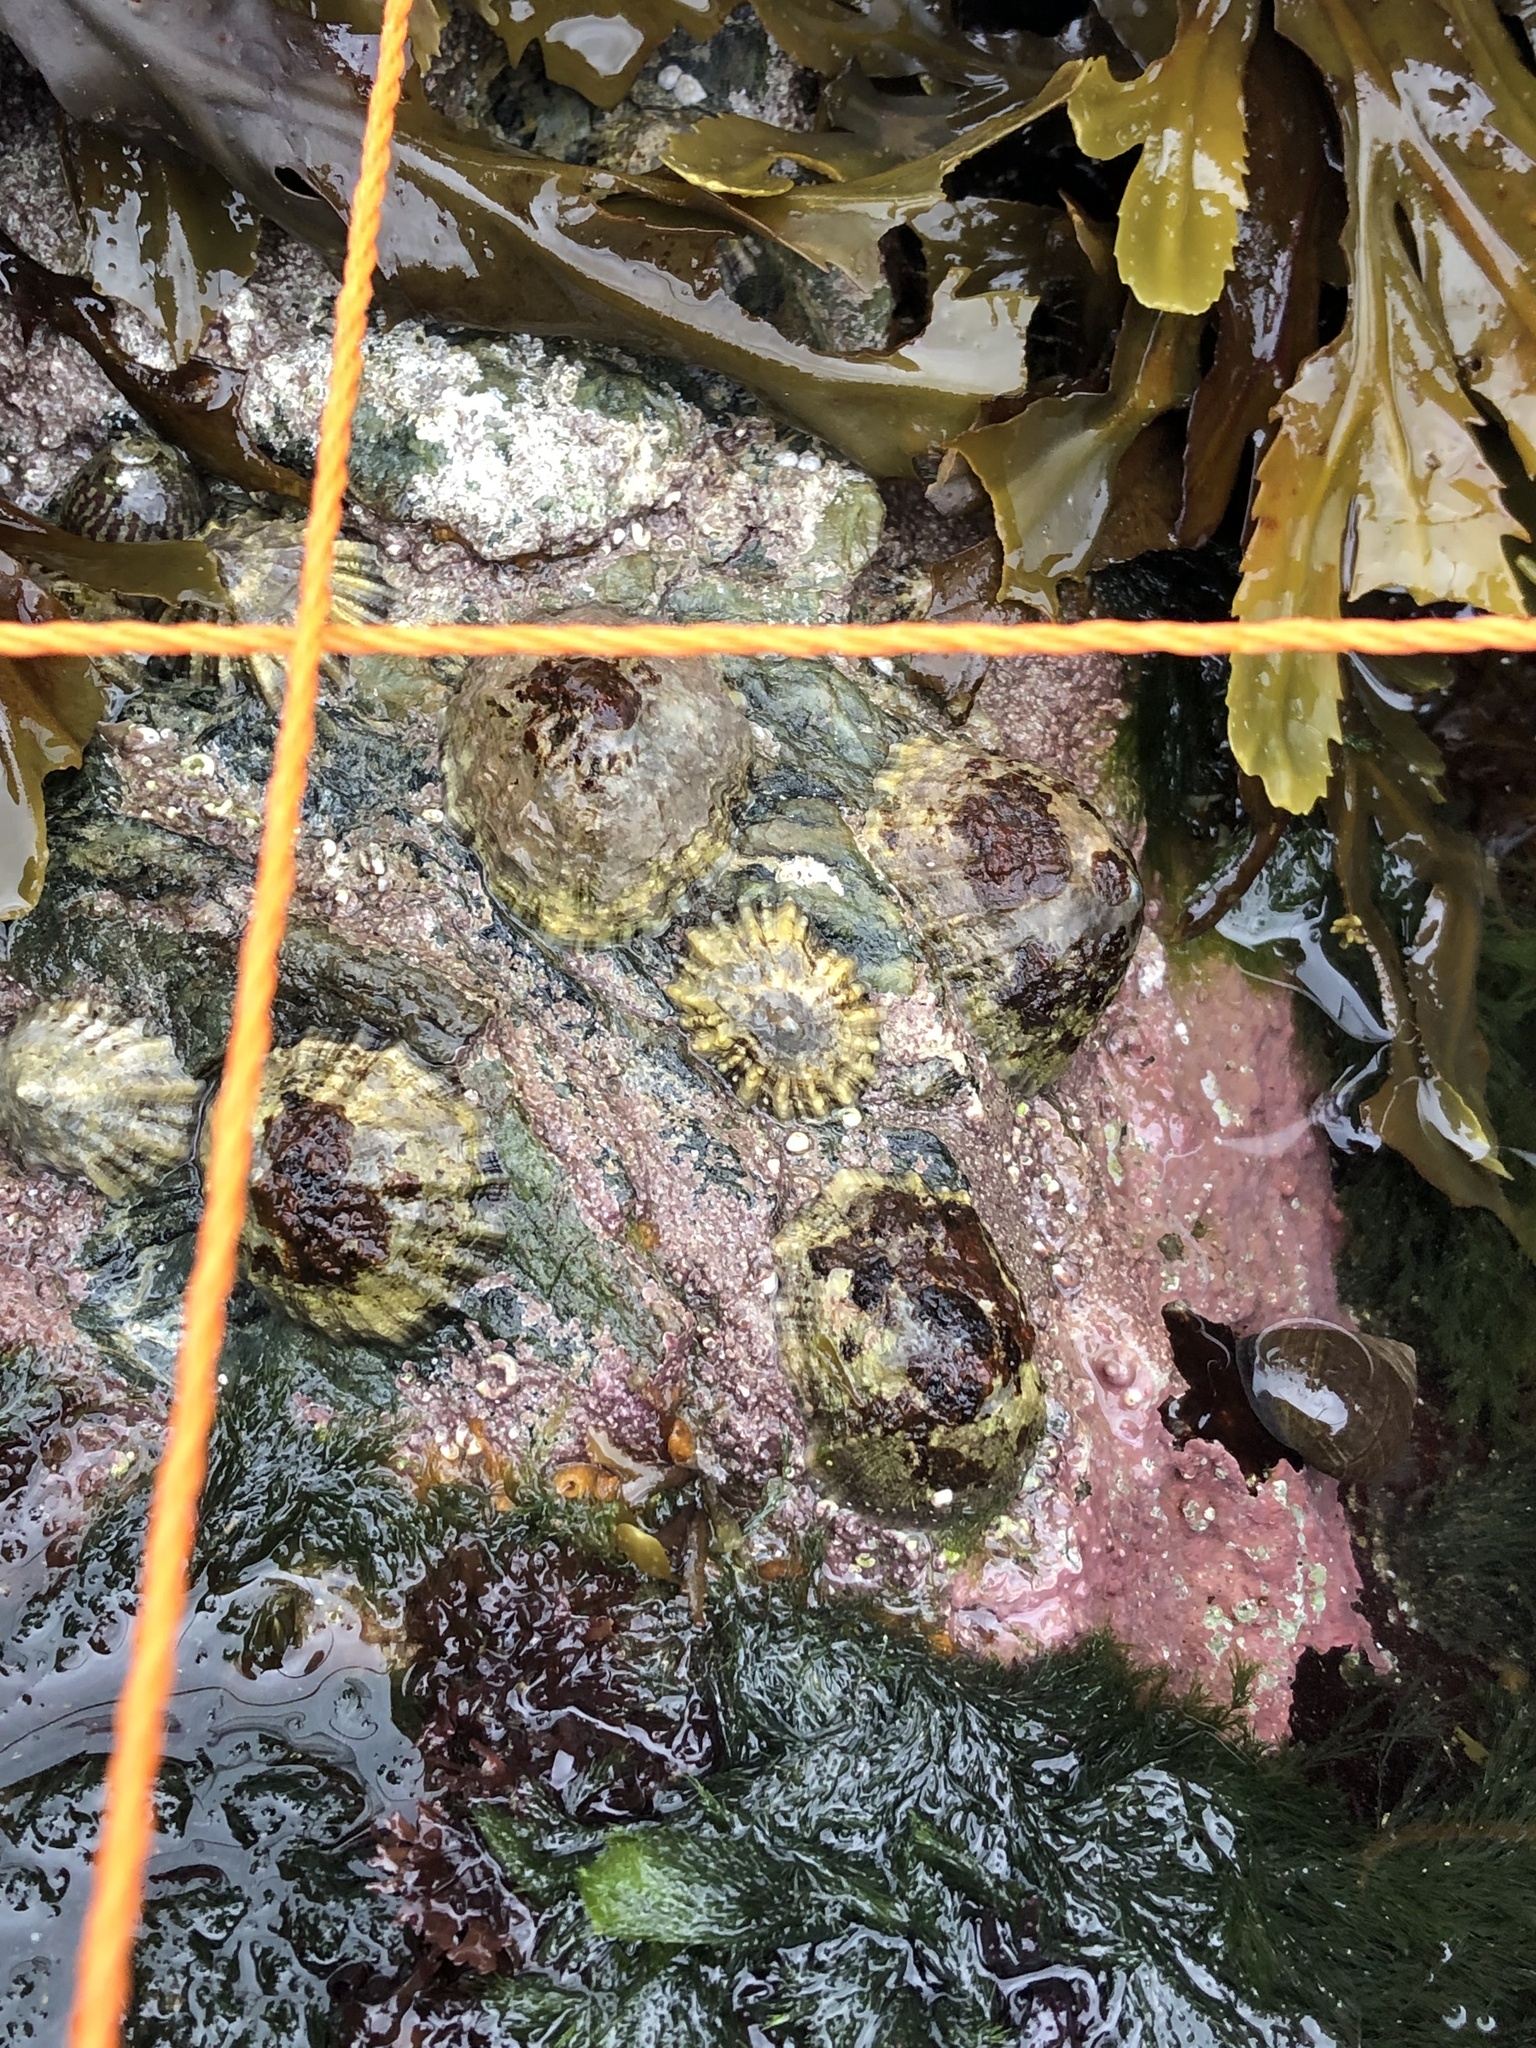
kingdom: Animalia
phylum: Mollusca
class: Gastropoda
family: Patellidae
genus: Patella
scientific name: Patella
